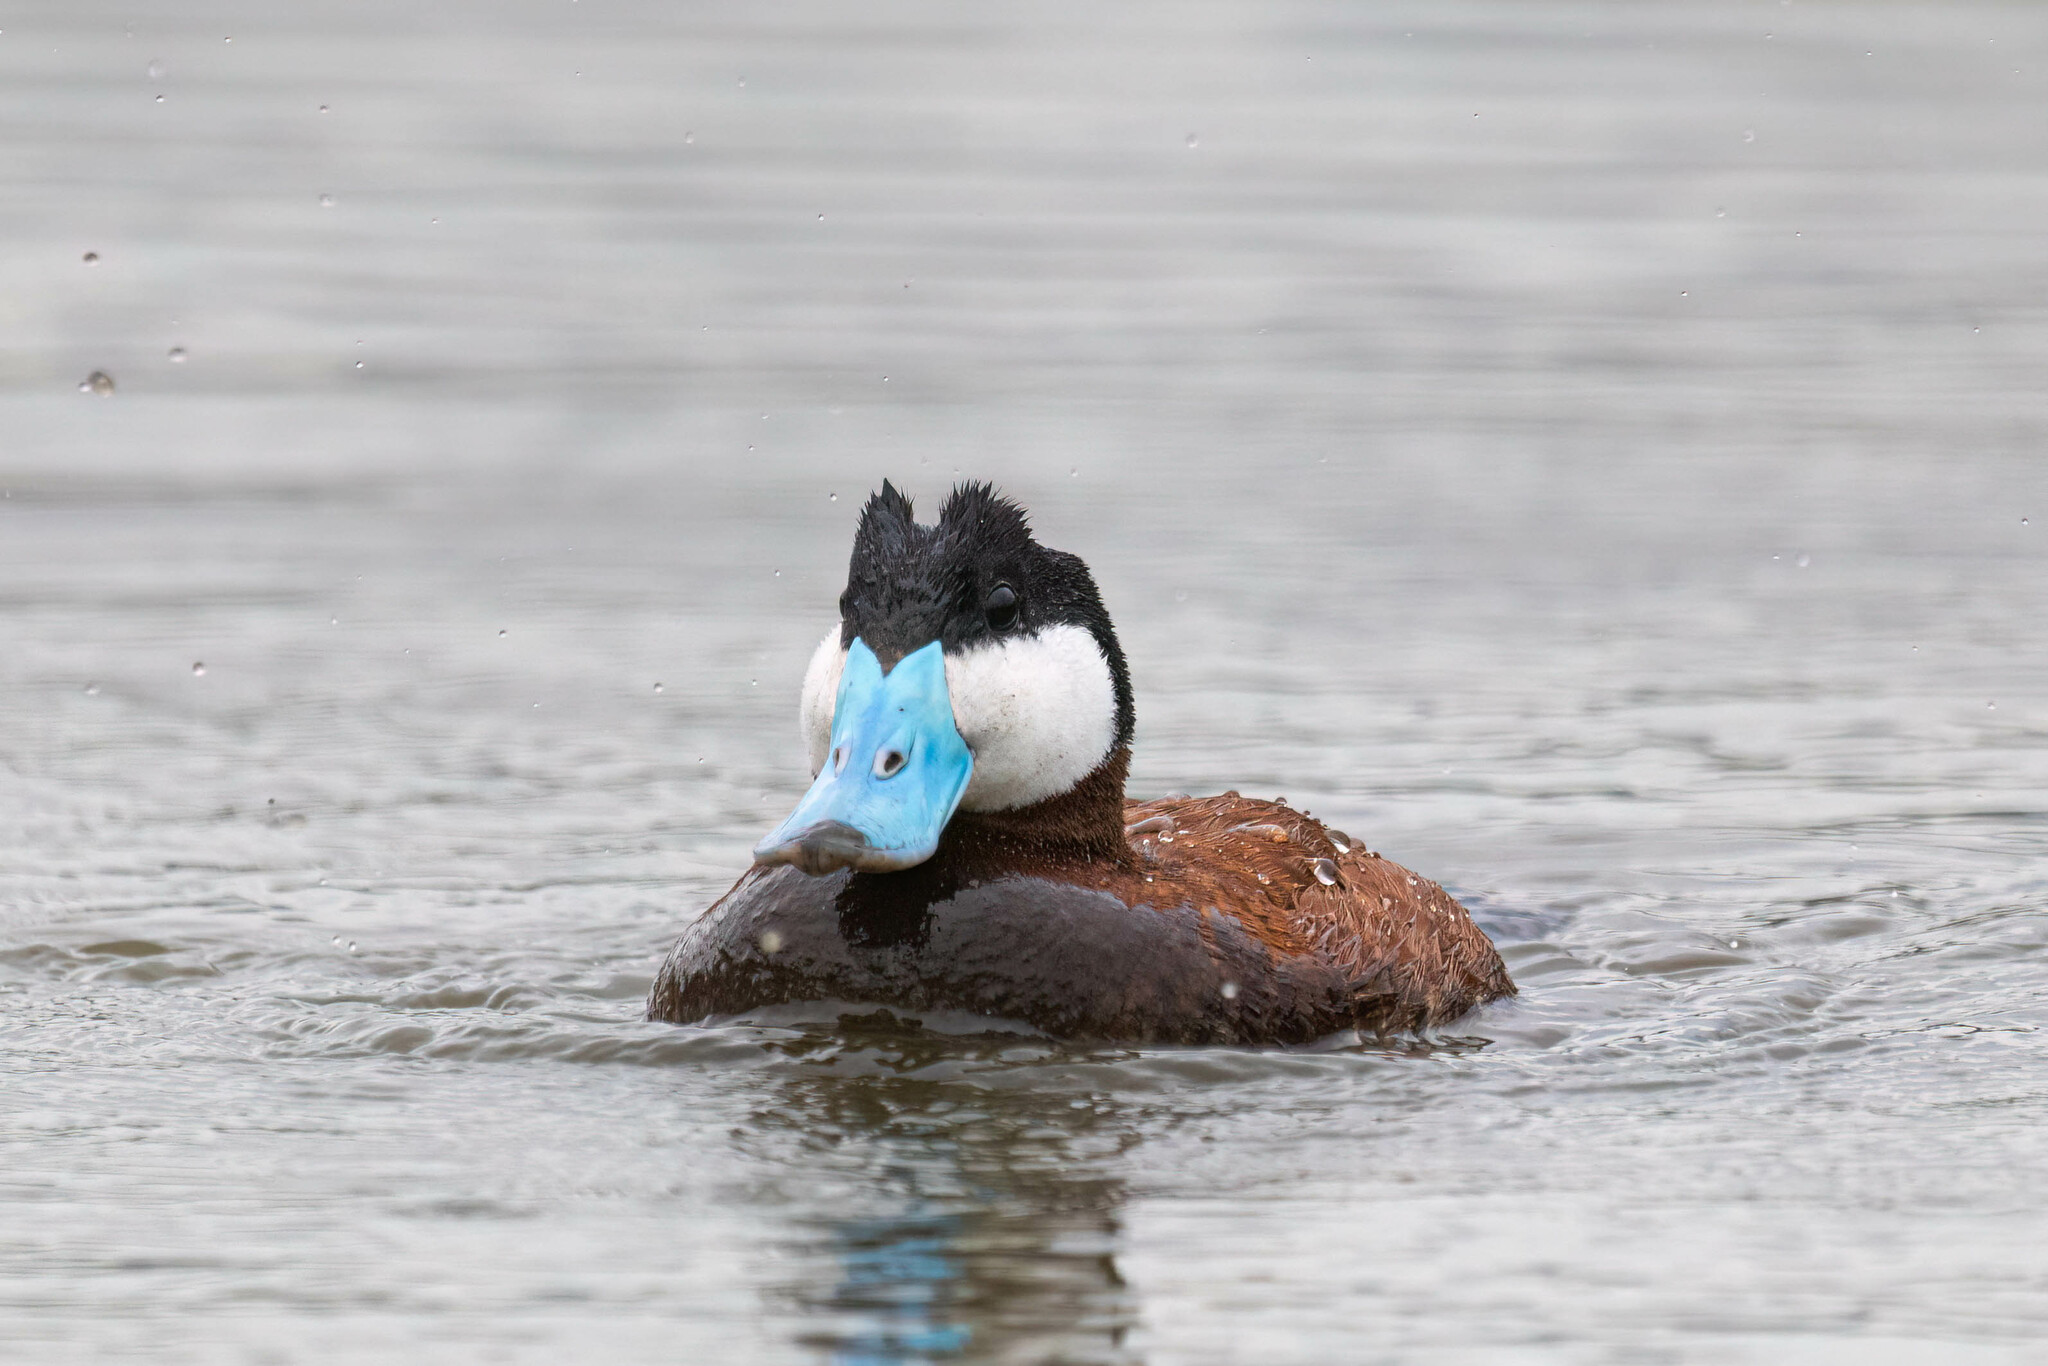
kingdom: Animalia
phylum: Chordata
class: Aves
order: Anseriformes
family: Anatidae
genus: Oxyura
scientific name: Oxyura jamaicensis
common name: Ruddy duck
